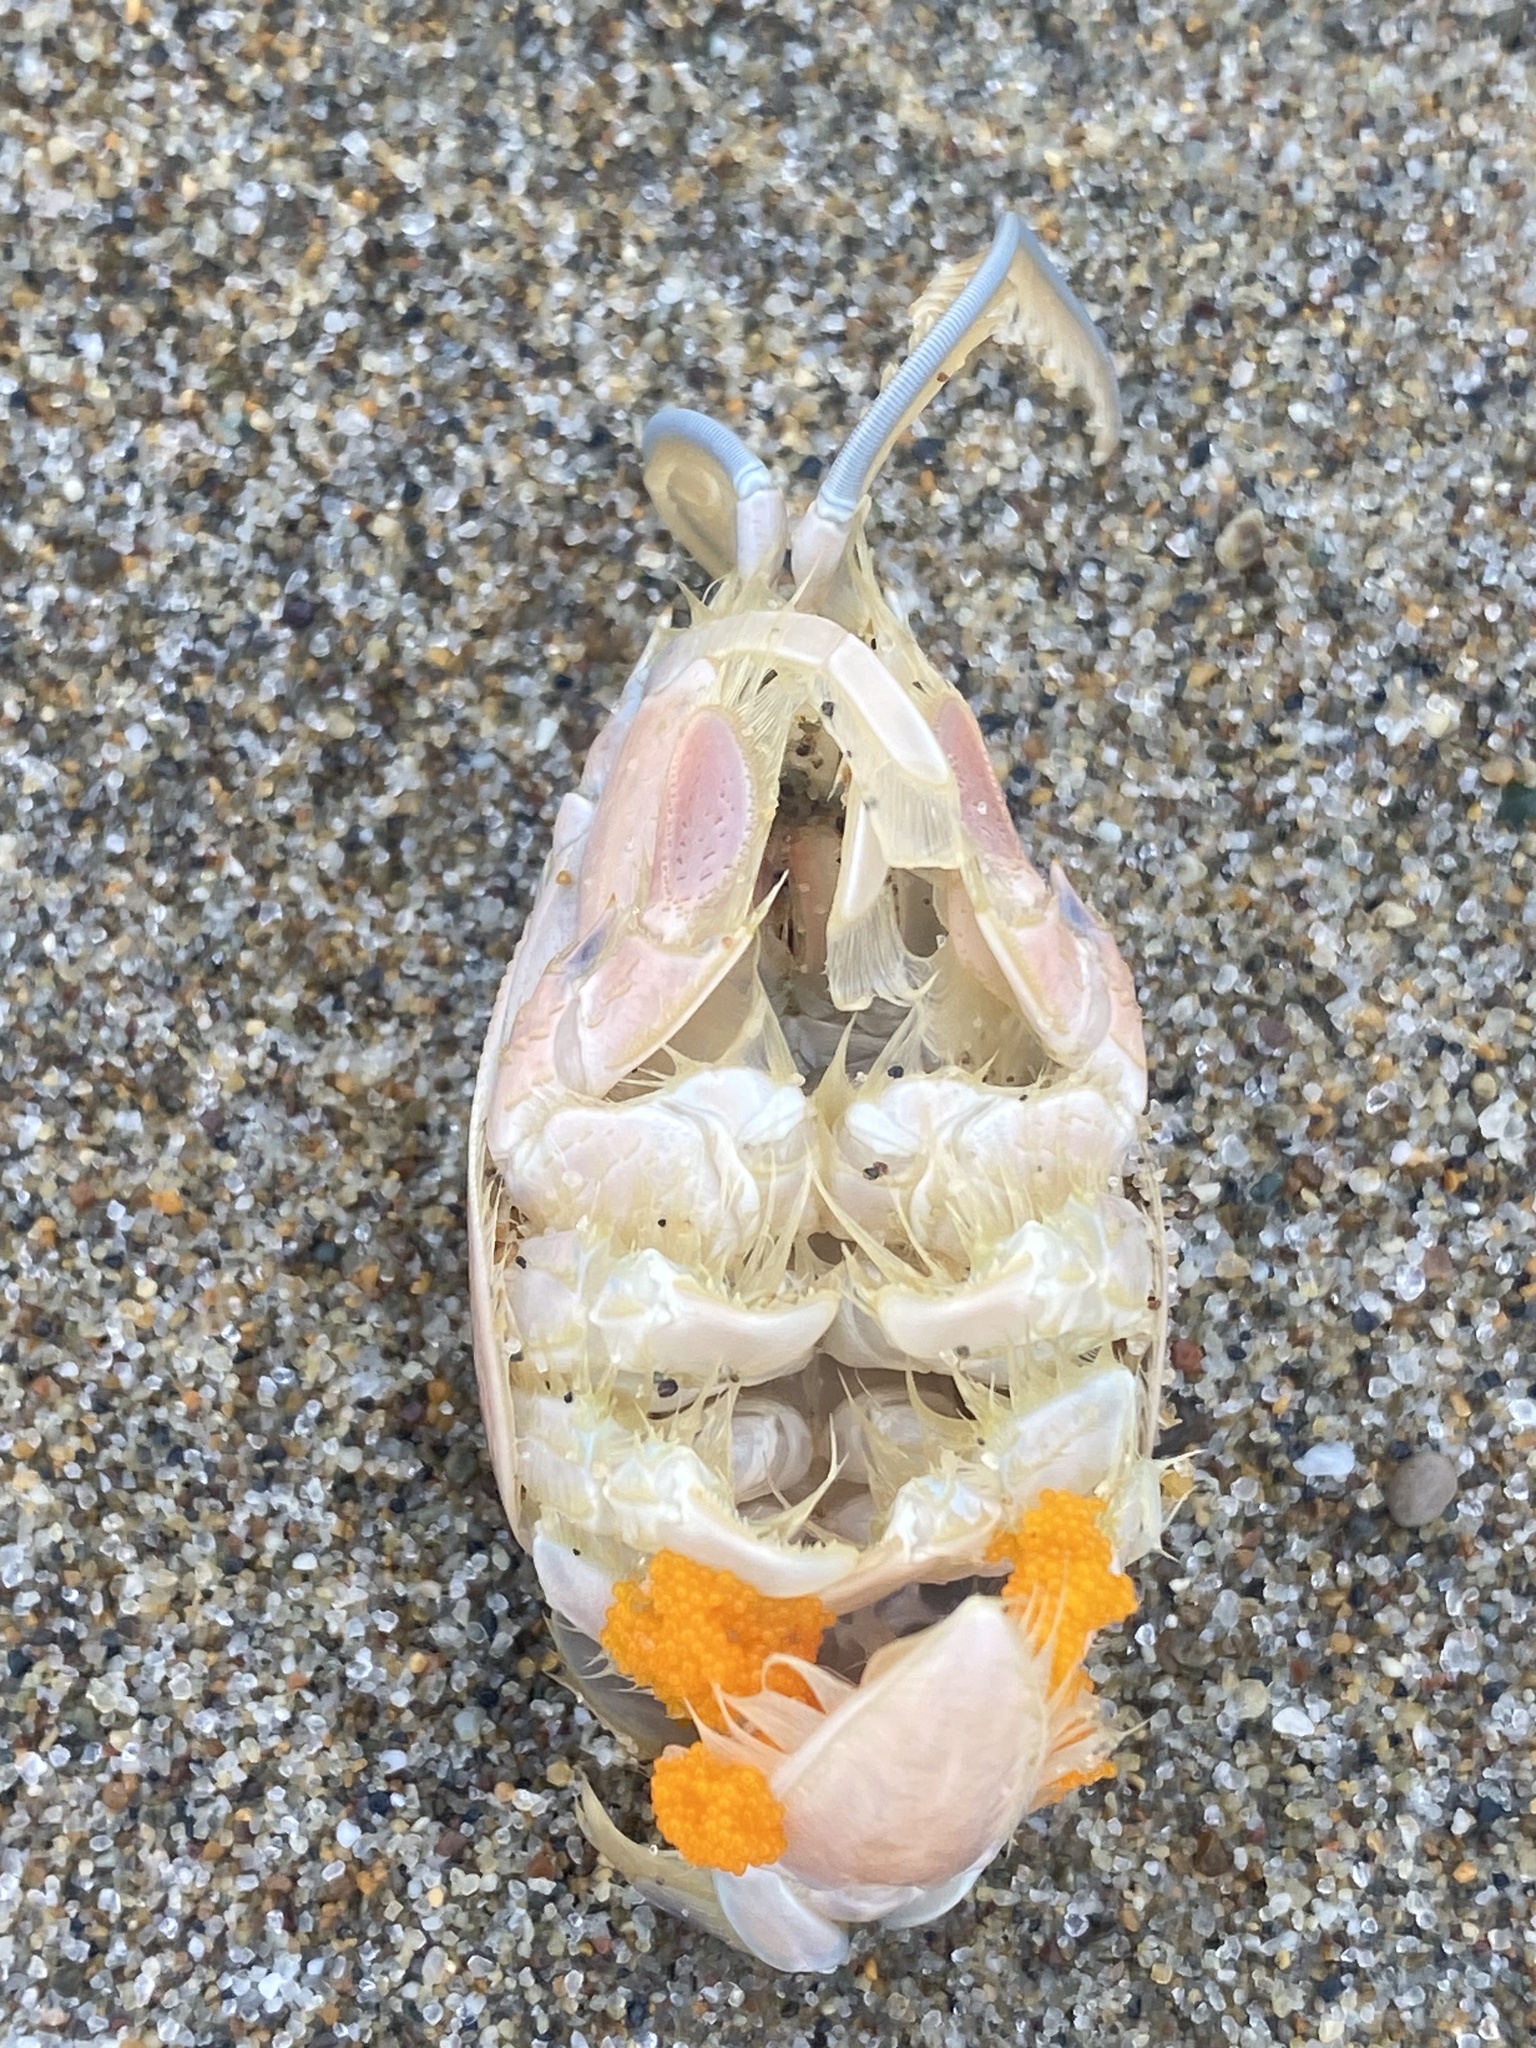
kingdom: Animalia
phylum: Arthropoda
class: Malacostraca
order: Decapoda
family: Hippidae
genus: Emerita
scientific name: Emerita analoga
